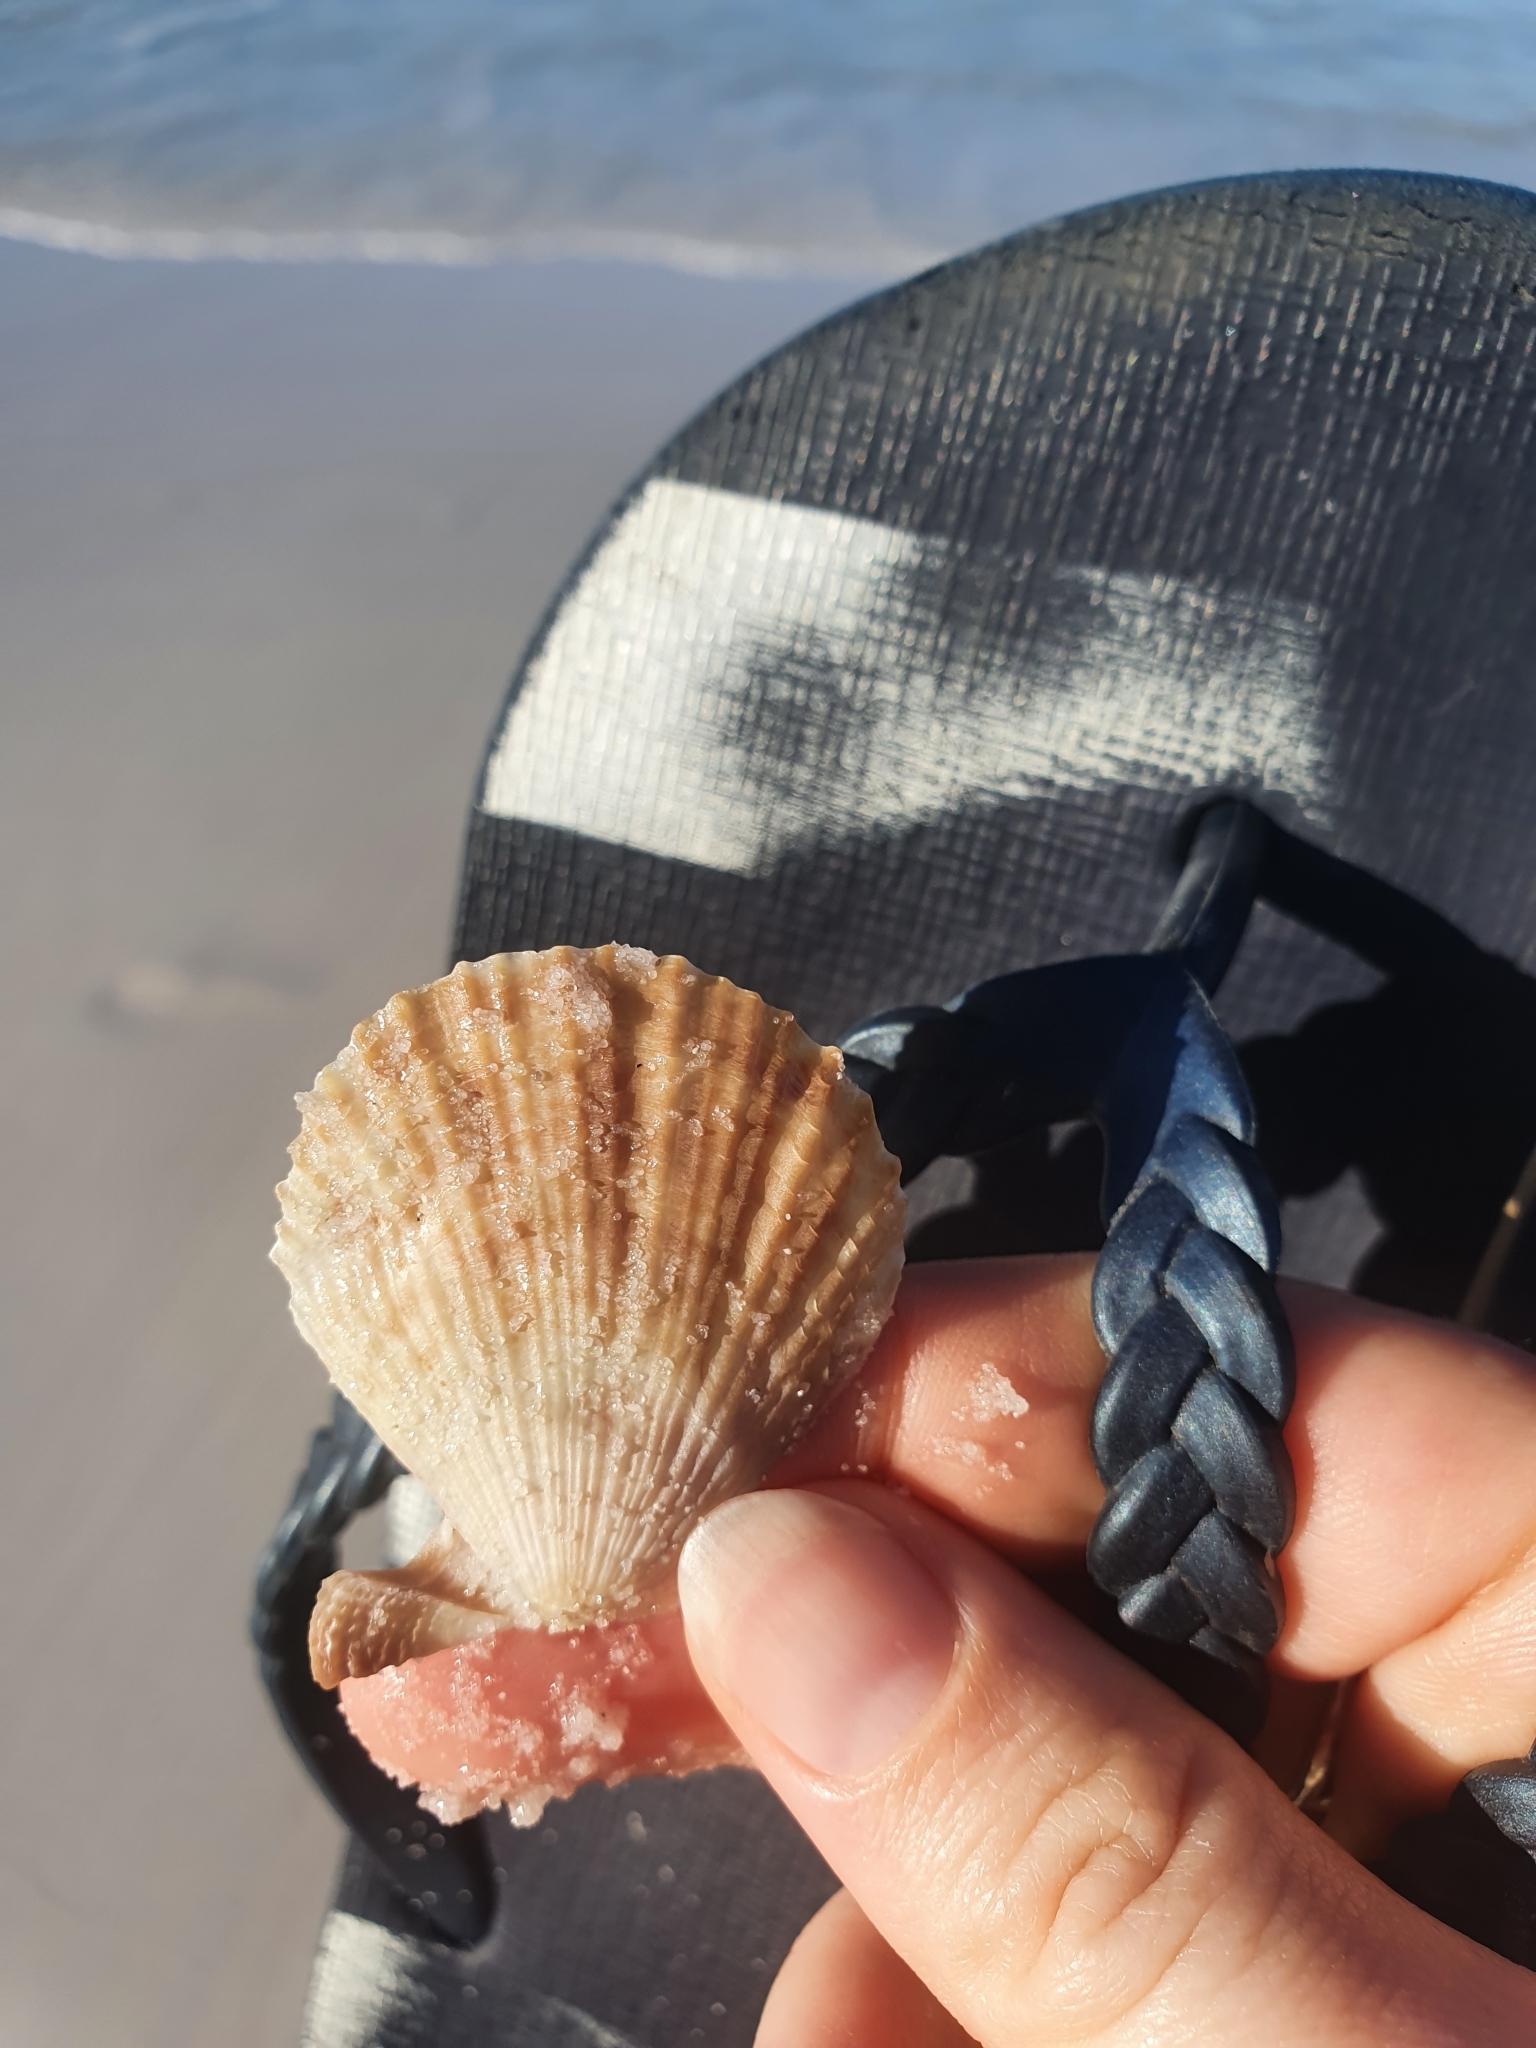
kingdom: Animalia
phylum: Mollusca
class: Bivalvia
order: Pectinida
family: Pectinidae
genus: Scaeochlamys
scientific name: Scaeochlamys livida
